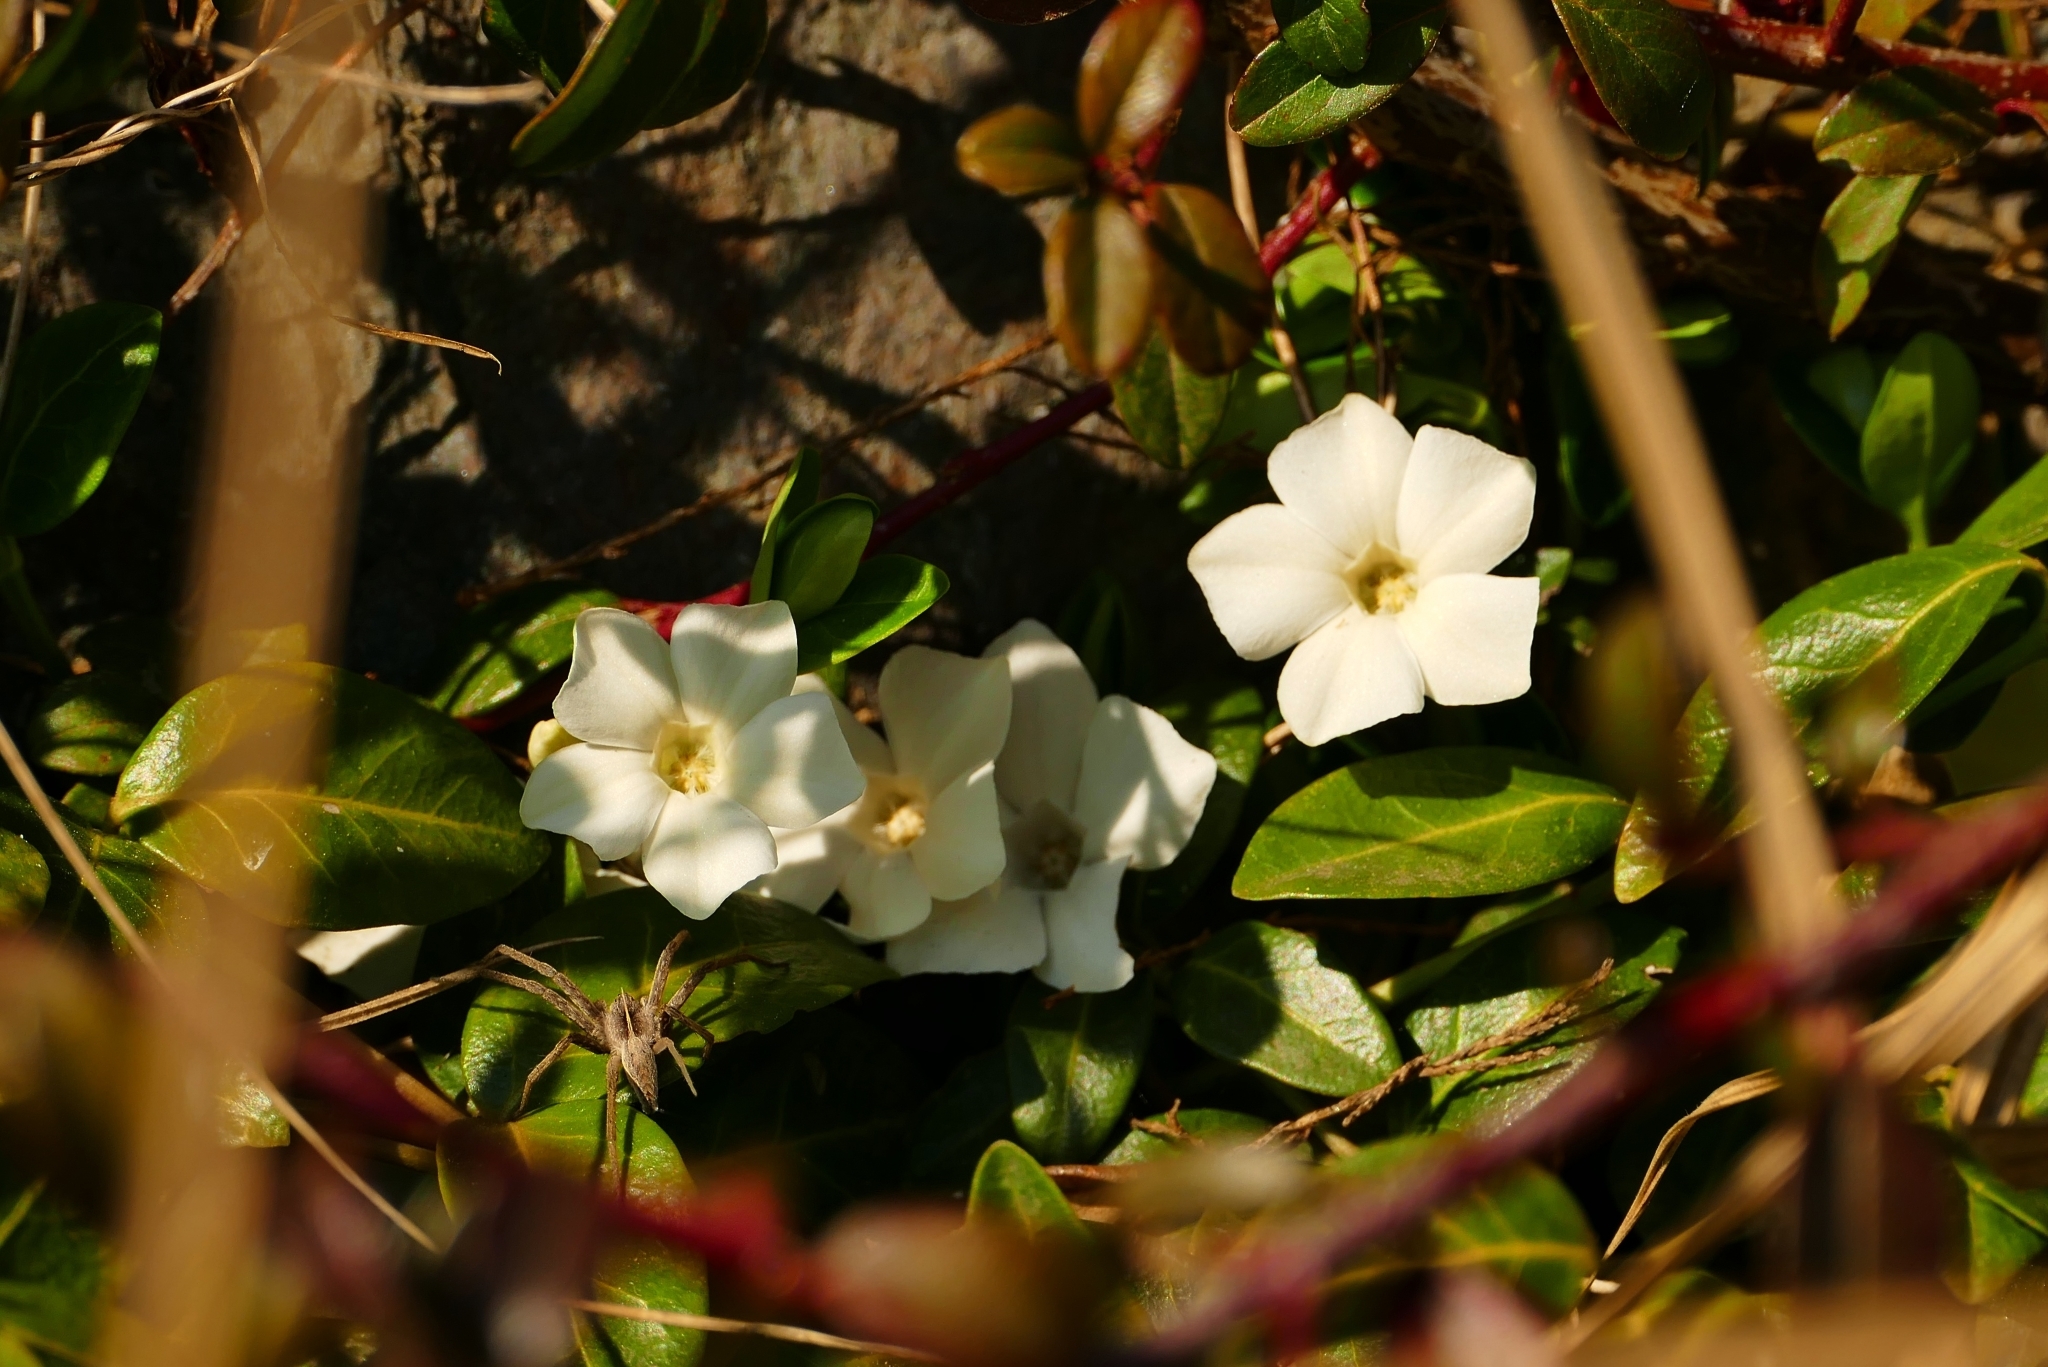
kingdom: Plantae
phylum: Tracheophyta
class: Magnoliopsida
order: Gentianales
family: Apocynaceae
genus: Vinca
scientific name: Vinca minor
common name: Lesser periwinkle
